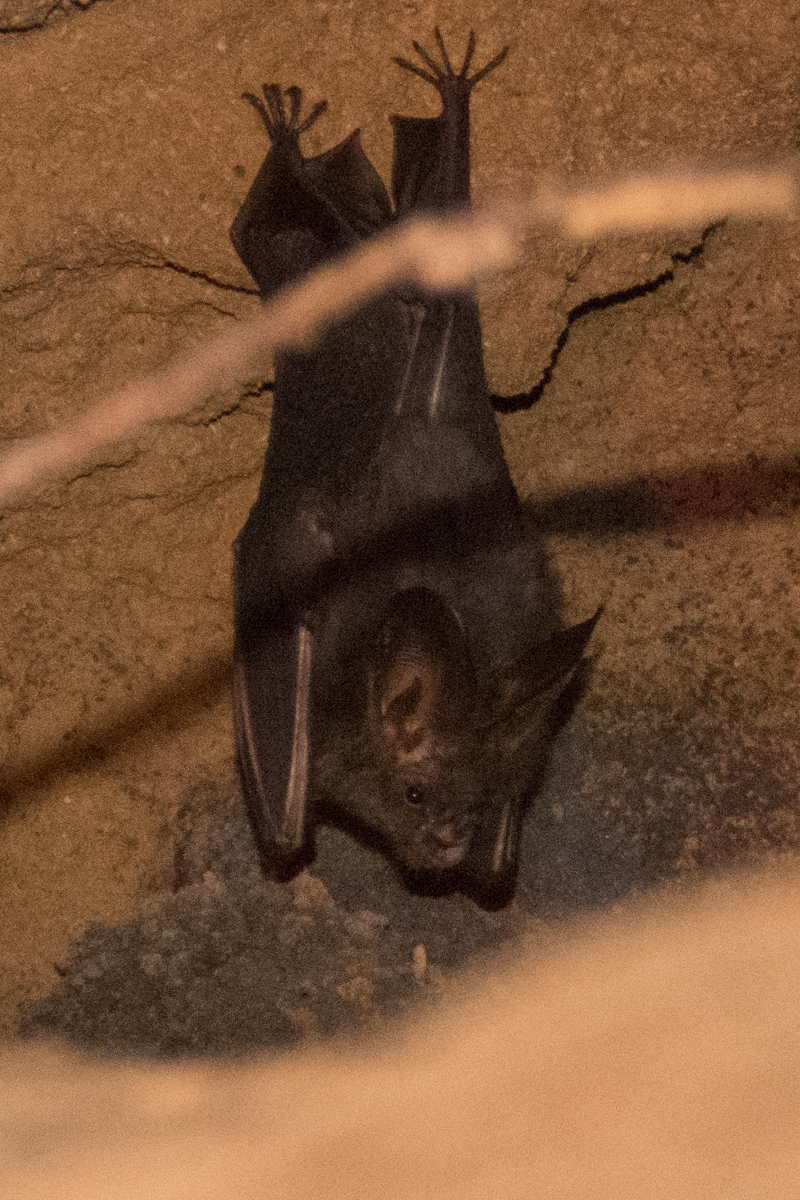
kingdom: Animalia
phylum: Chordata
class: Mammalia
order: Chiroptera
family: Megadermatidae
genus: Megaderma
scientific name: Megaderma spasma
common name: Lesser false vampire bat
